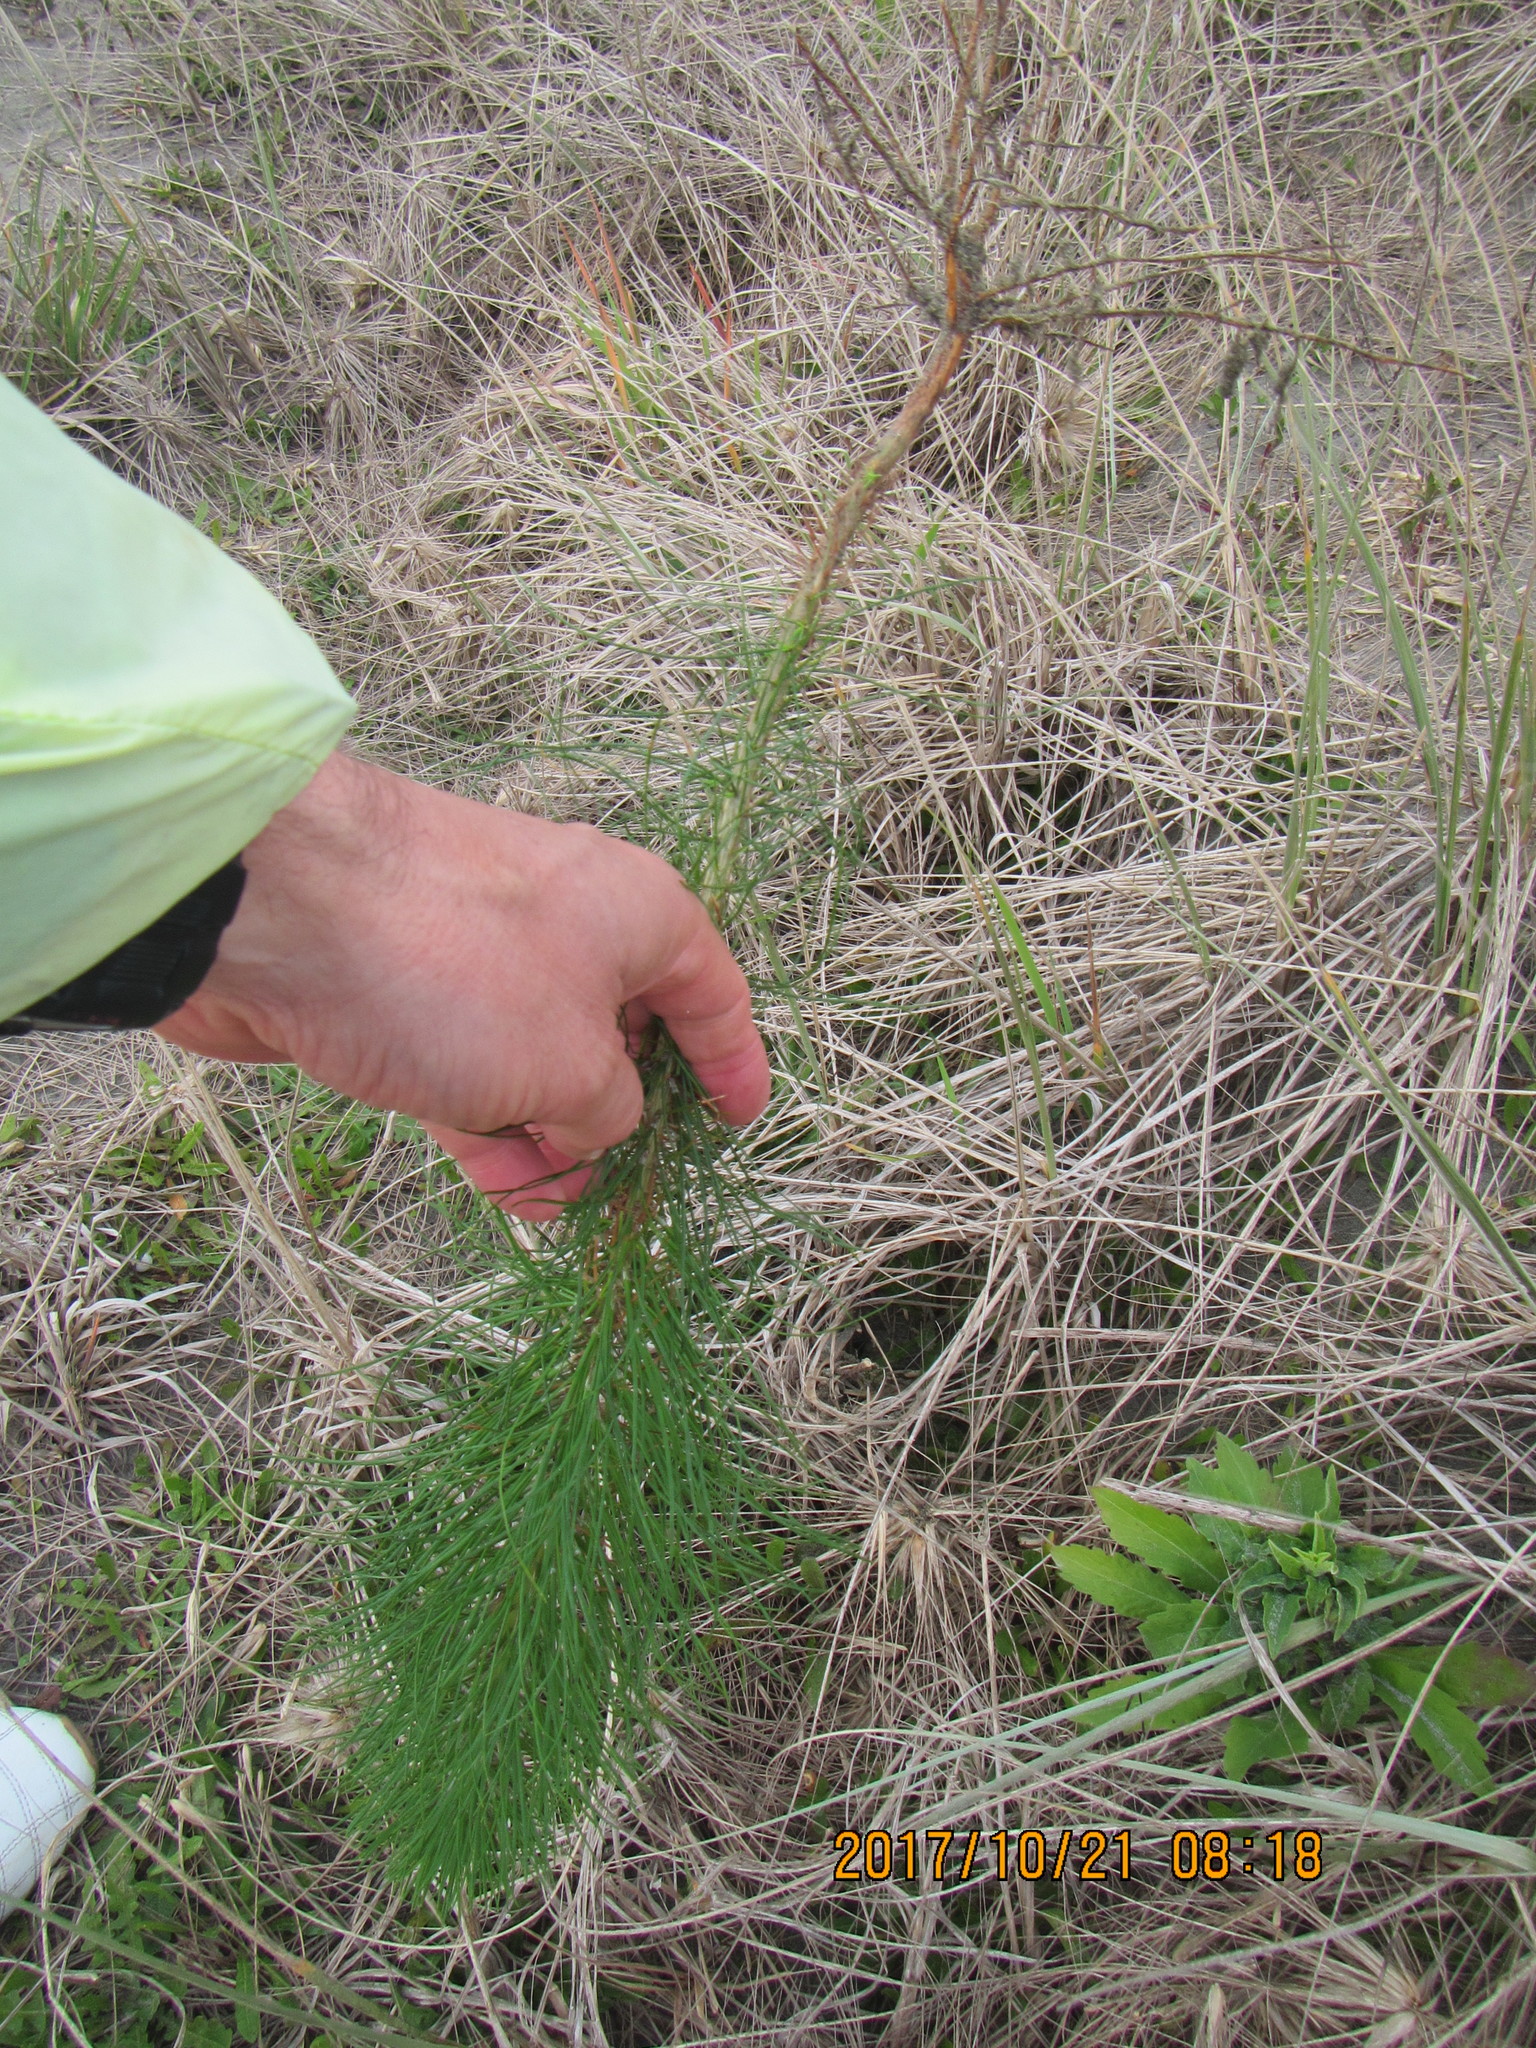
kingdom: Plantae
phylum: Tracheophyta
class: Pinopsida
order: Pinales
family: Pinaceae
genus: Pinus
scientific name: Pinus radiata
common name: Monterey pine
